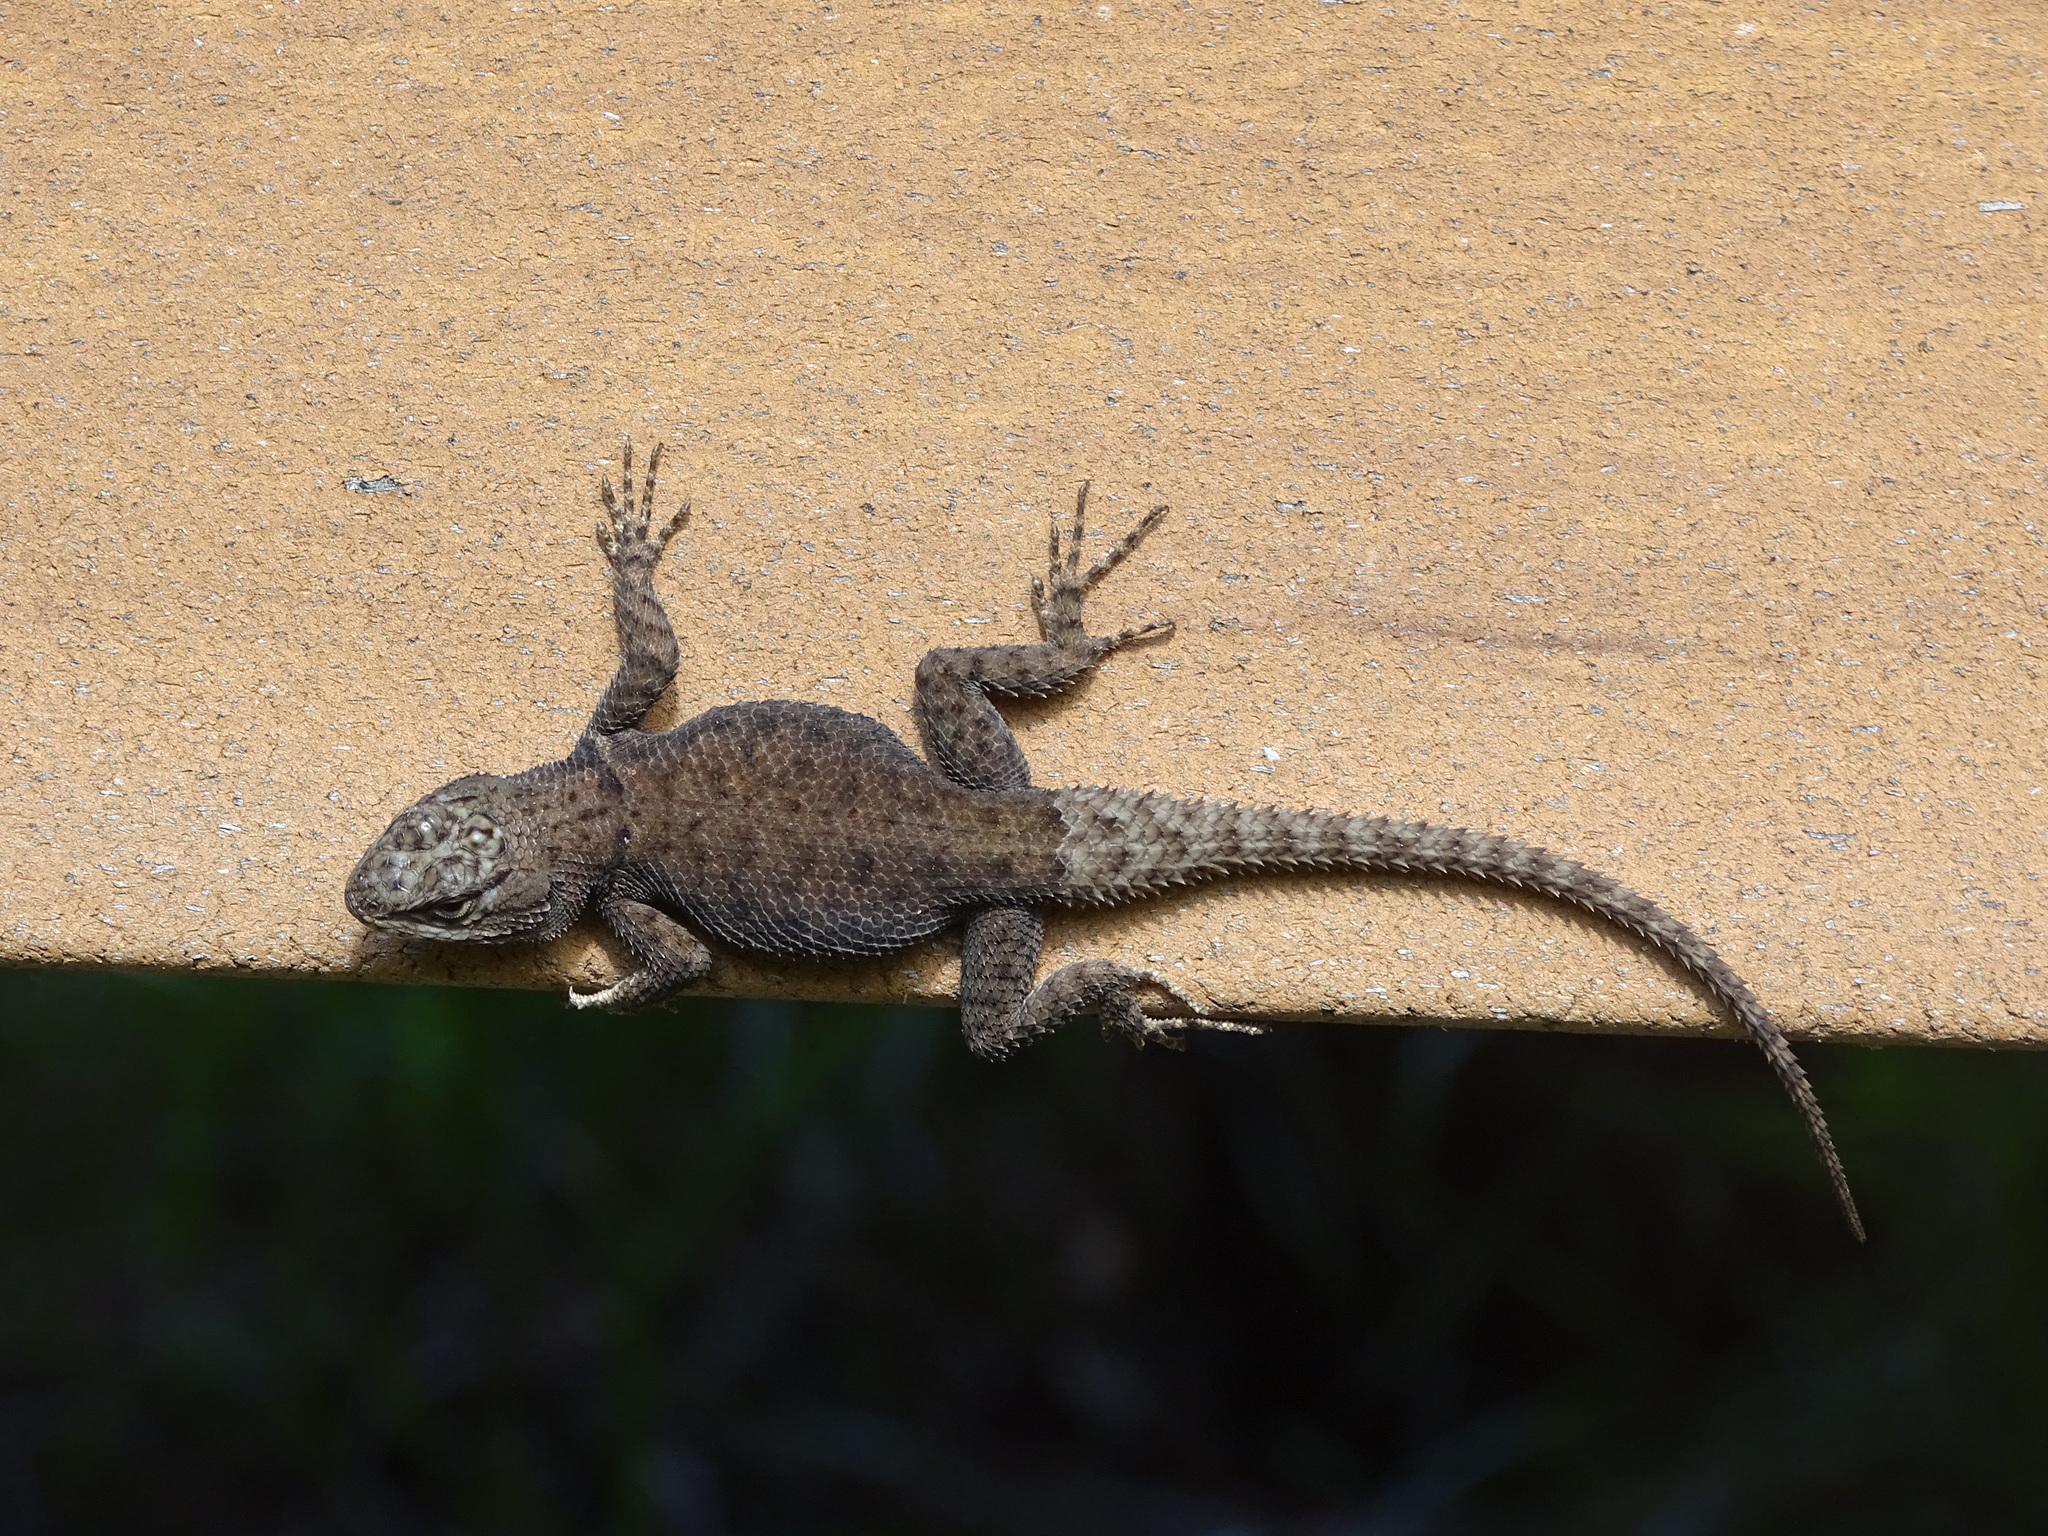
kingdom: Animalia
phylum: Chordata
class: Squamata
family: Phrynosomatidae
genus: Sceloporus
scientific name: Sceloporus jarrovii
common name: Yarrow's spiny lizard
